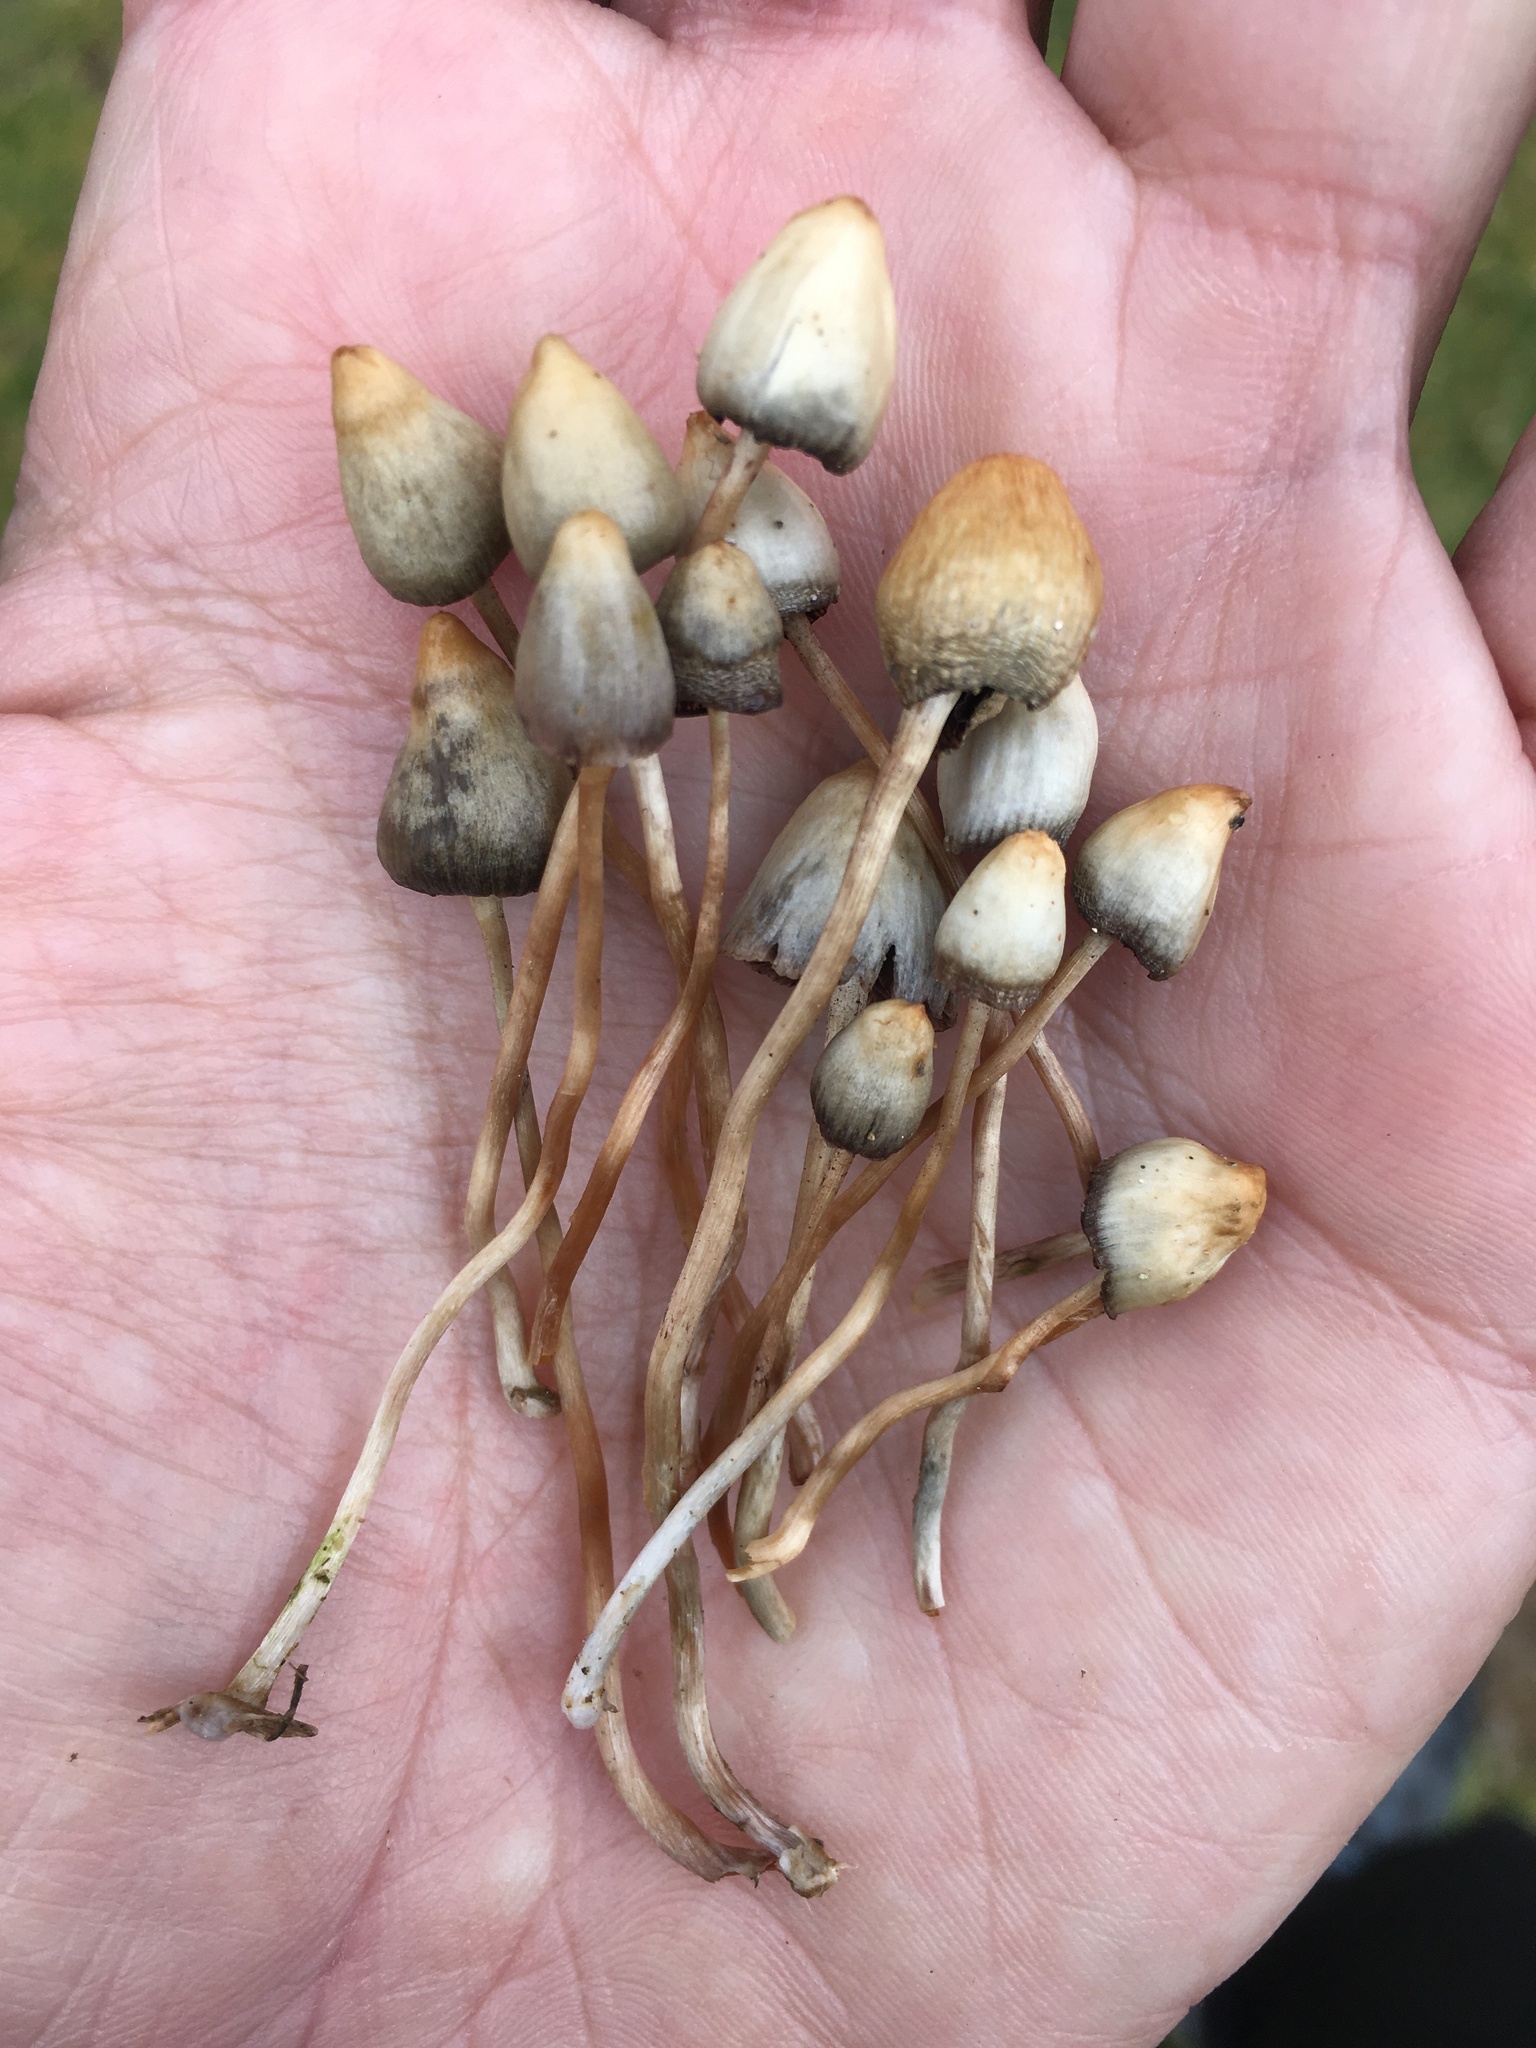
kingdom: Fungi
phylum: Basidiomycota
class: Agaricomycetes
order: Agaricales
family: Hymenogastraceae
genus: Psilocybe
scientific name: Psilocybe semilanceata
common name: Liberty cap
